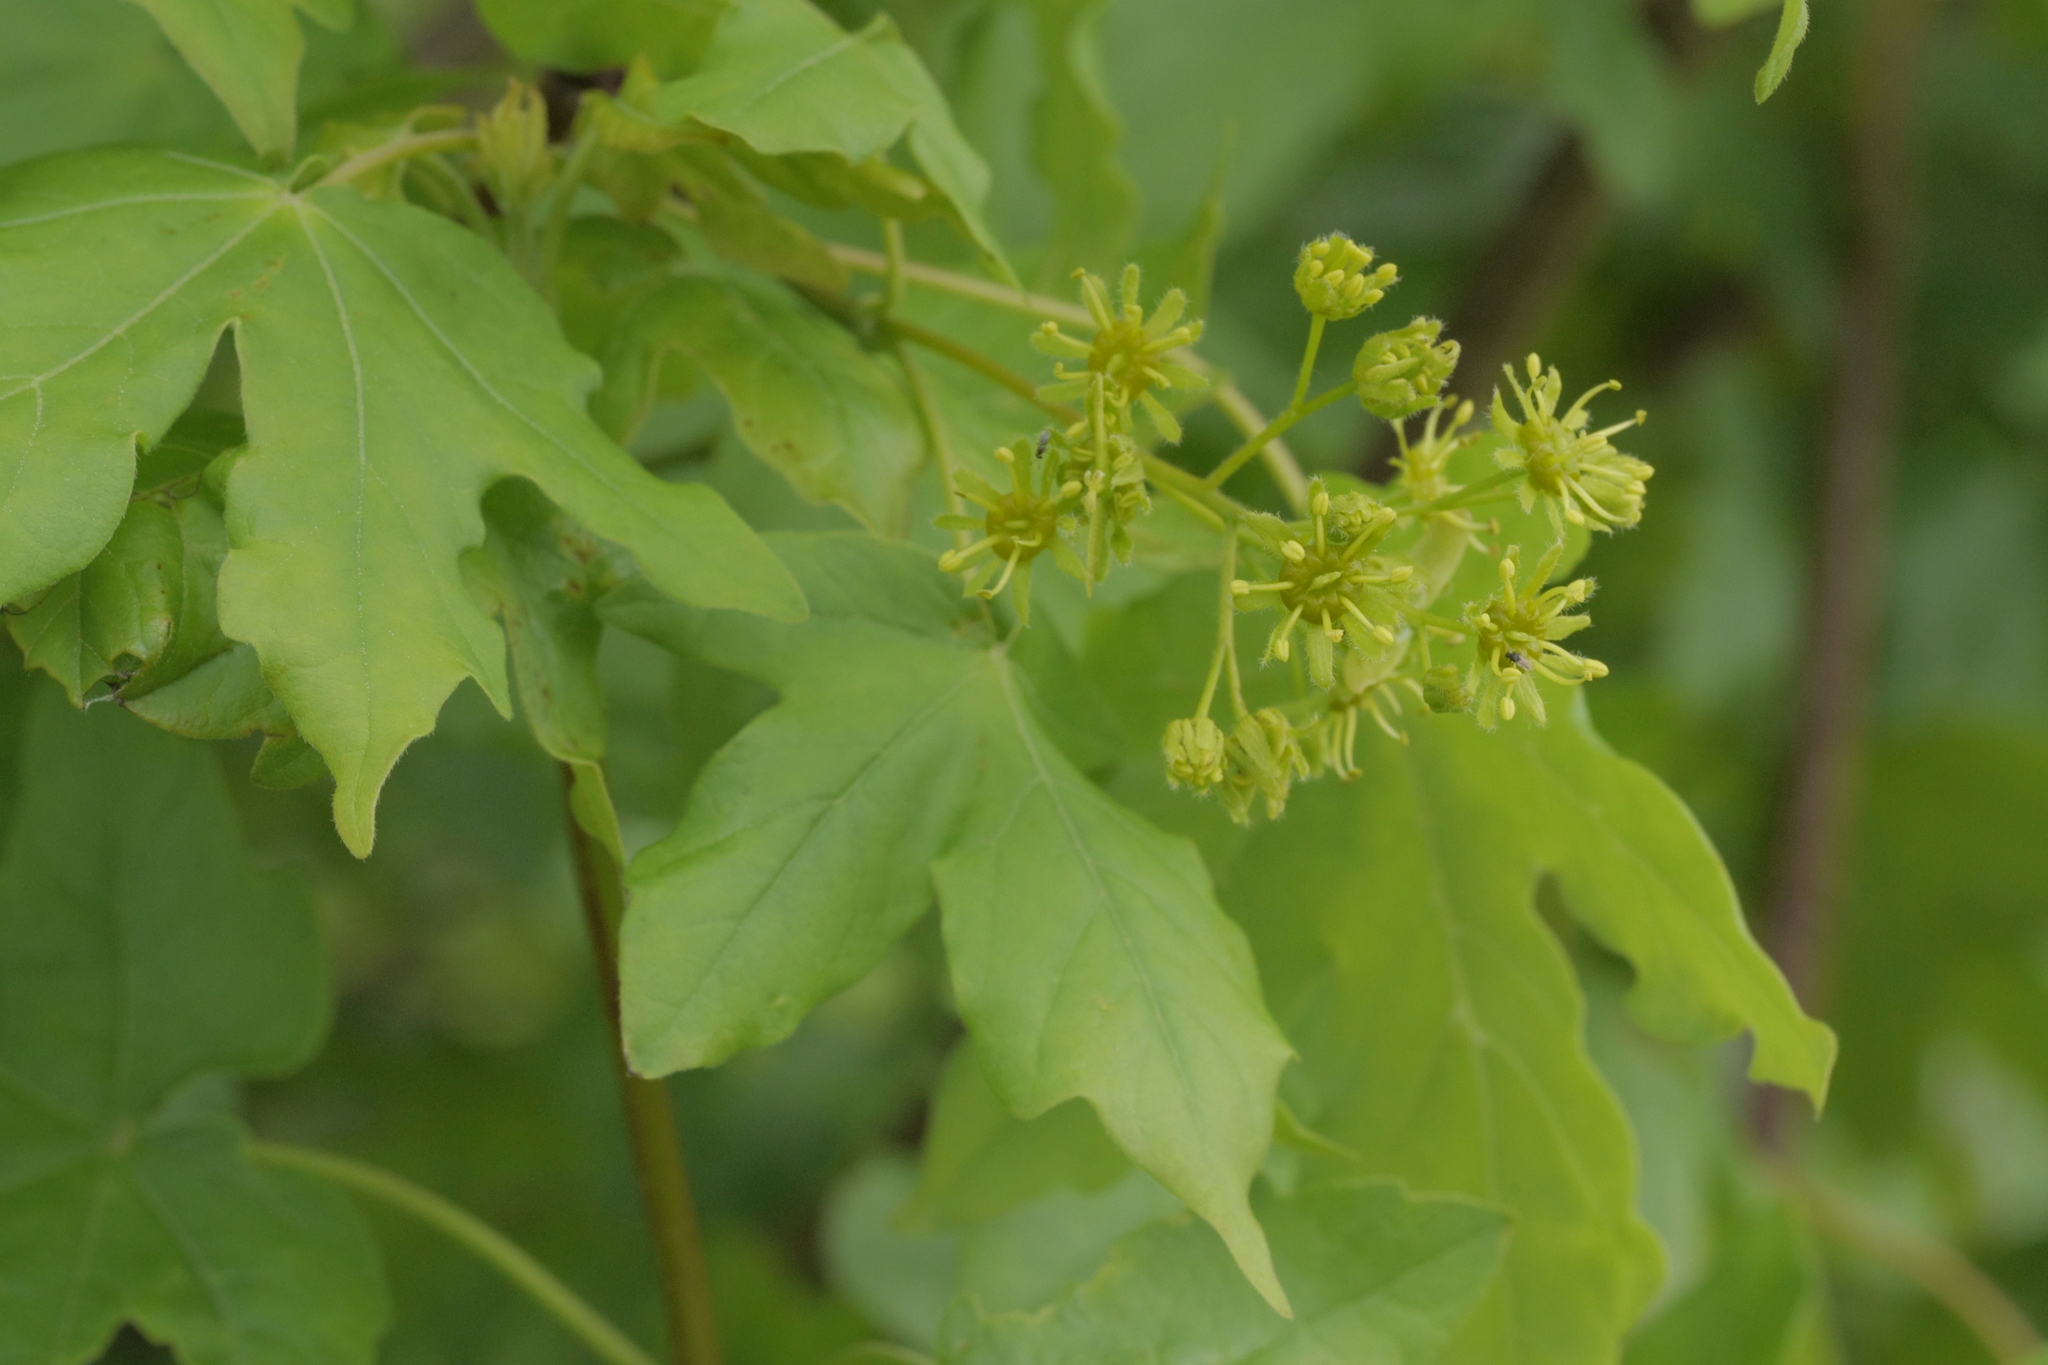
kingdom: Plantae
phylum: Tracheophyta
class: Magnoliopsida
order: Sapindales
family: Sapindaceae
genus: Acer
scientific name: Acer campestre
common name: Field maple
